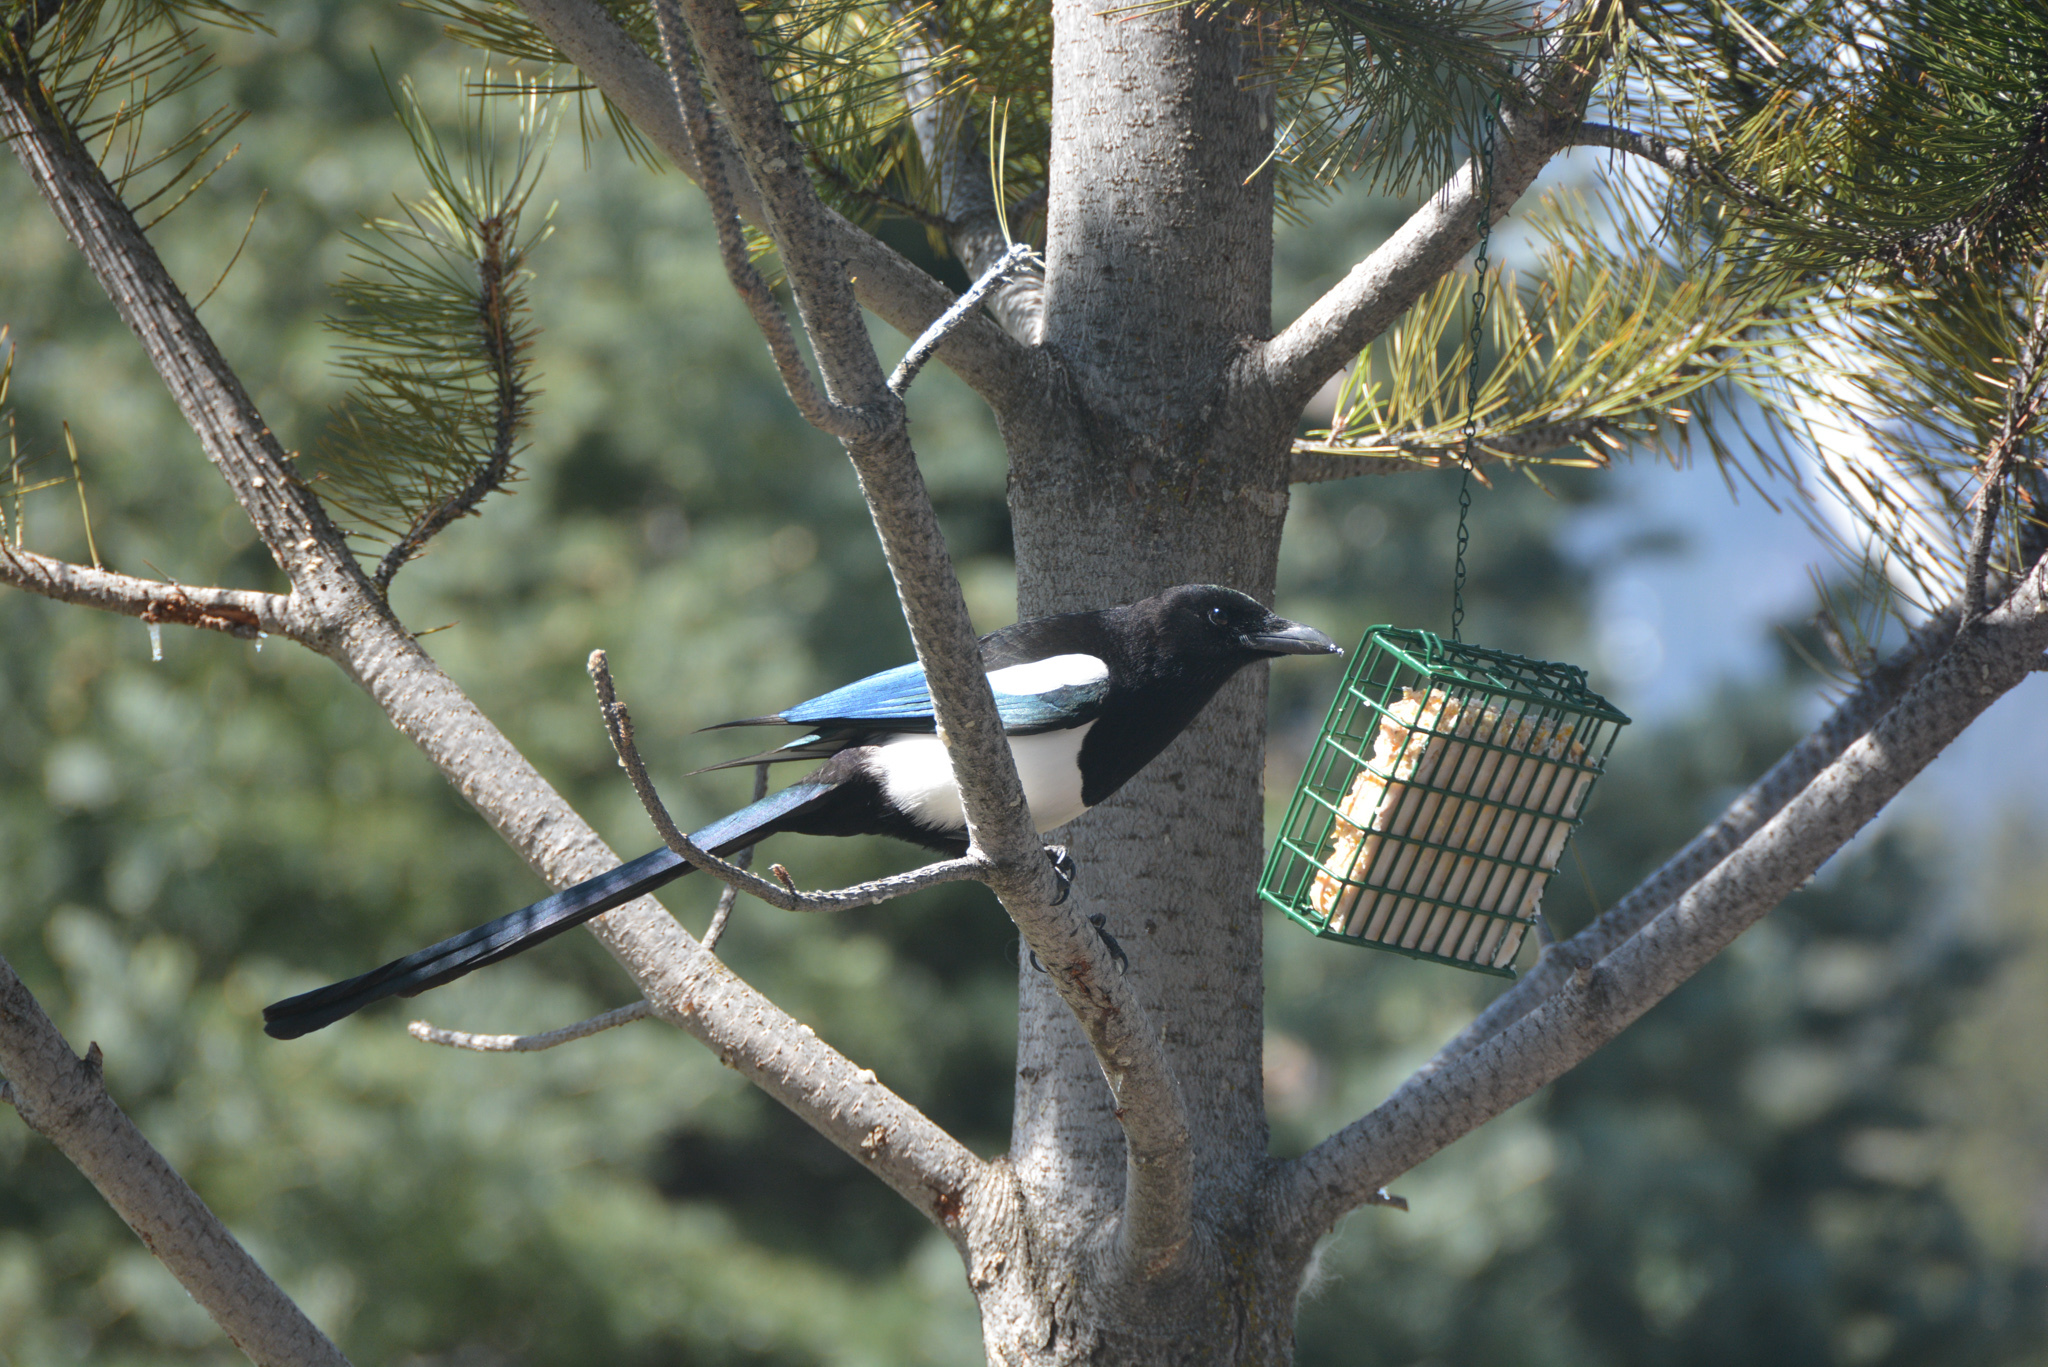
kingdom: Animalia
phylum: Chordata
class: Aves
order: Passeriformes
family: Corvidae
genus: Pica
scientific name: Pica hudsonia
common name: Black-billed magpie
